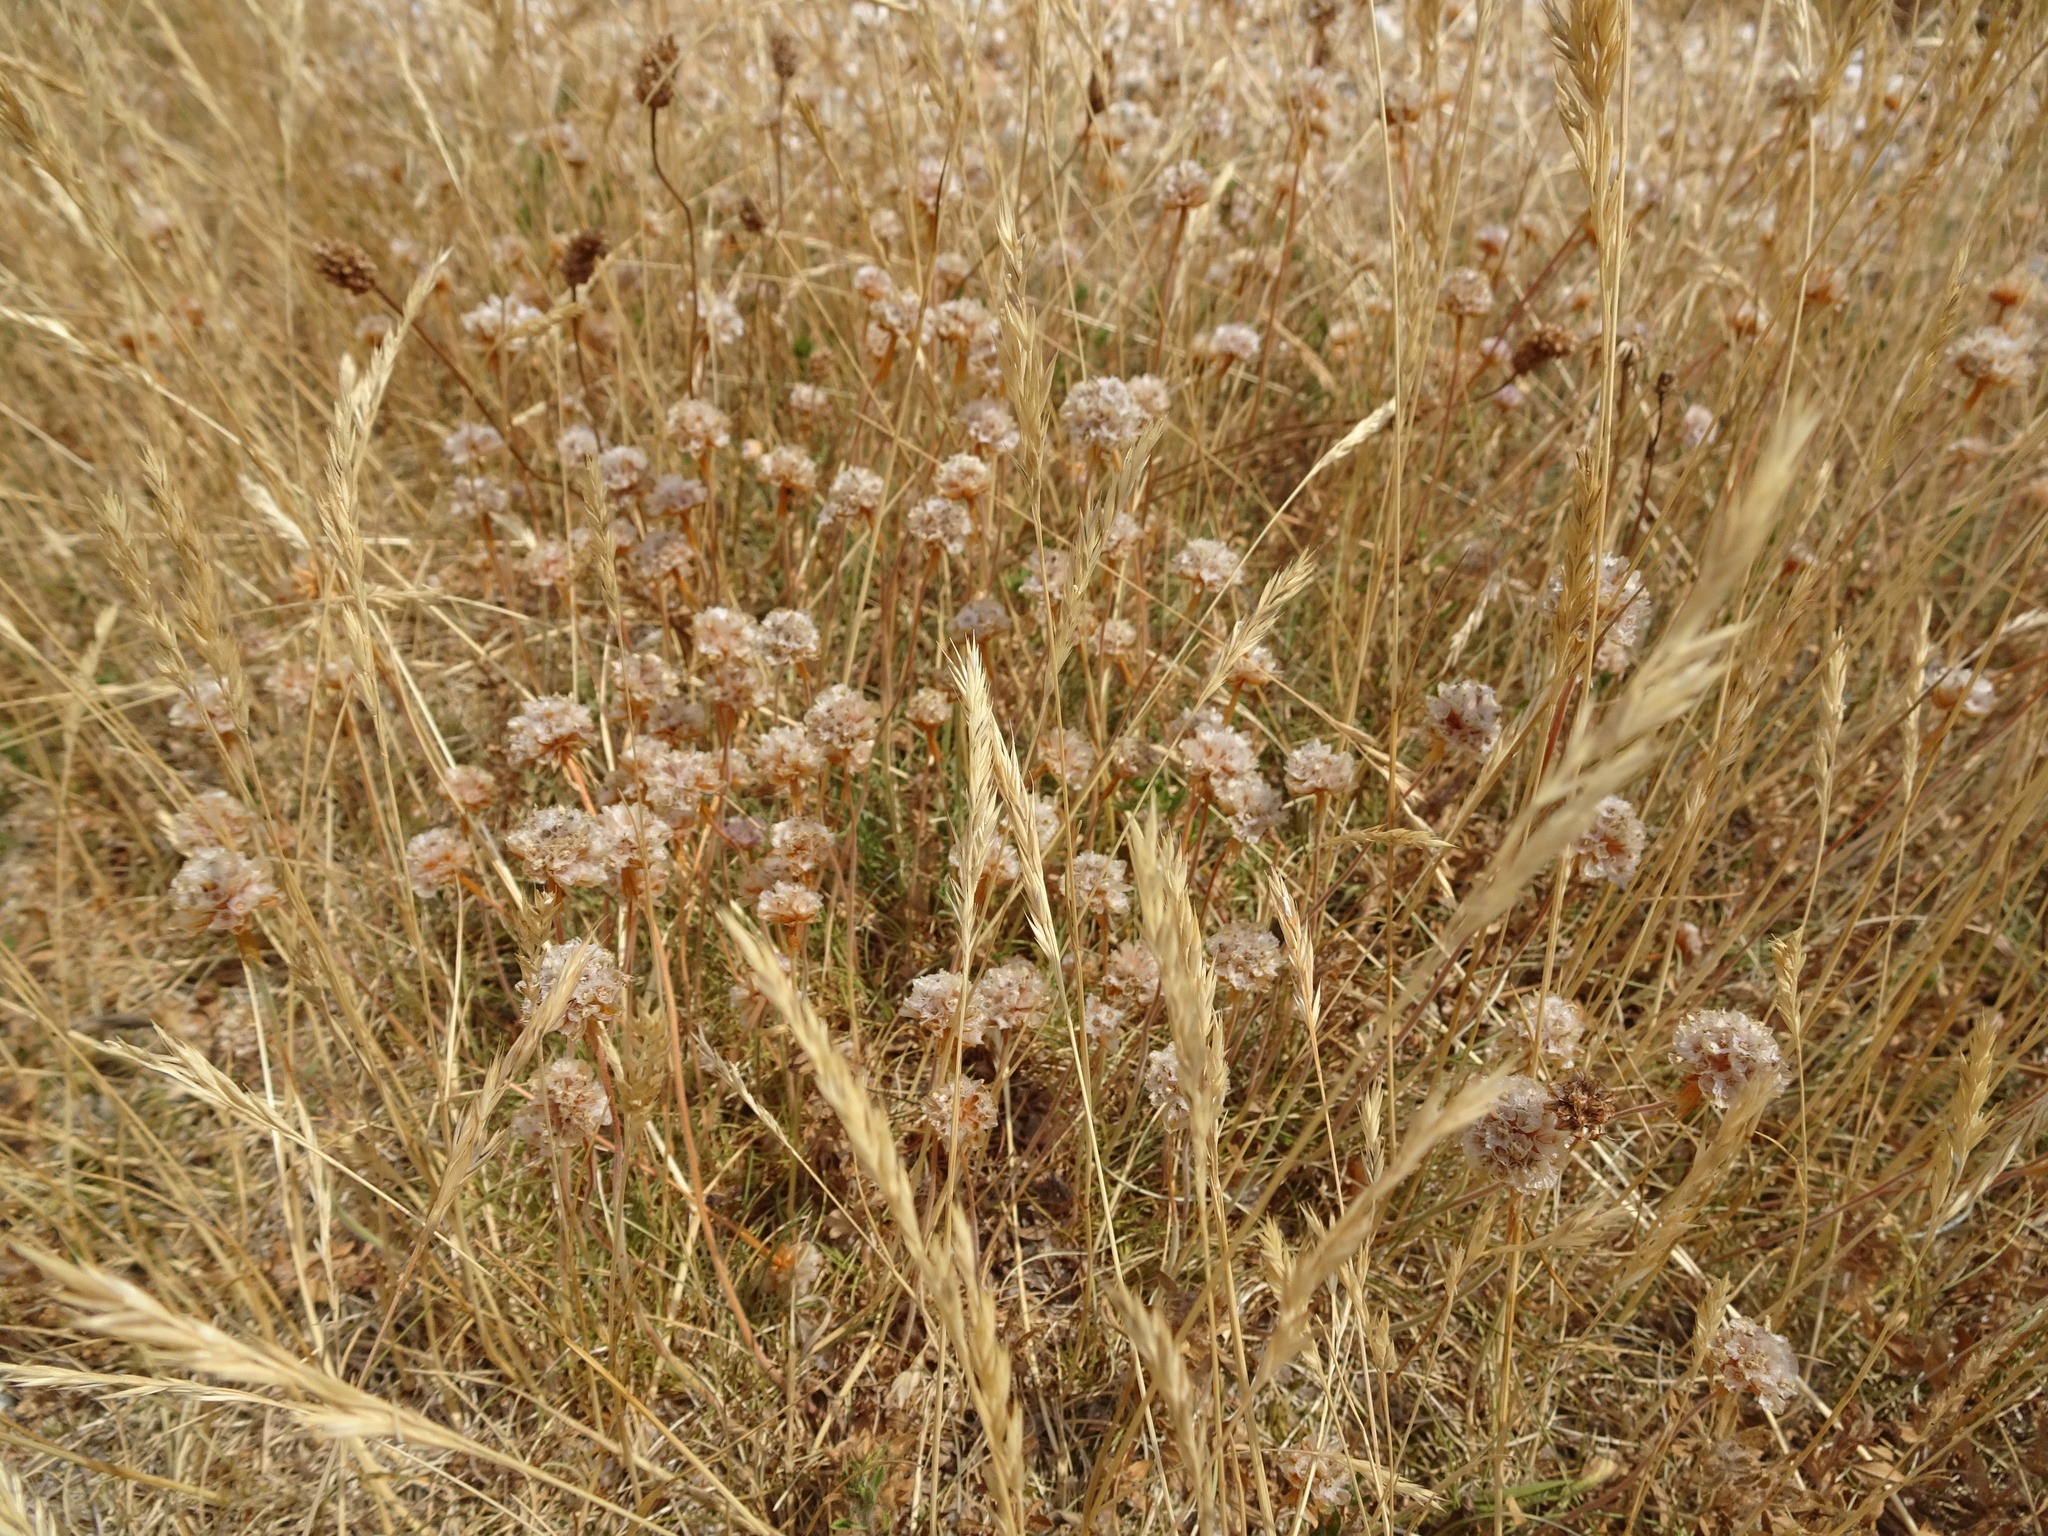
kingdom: Plantae
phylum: Tracheophyta
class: Magnoliopsida
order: Caryophyllales
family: Plumbaginaceae
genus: Armeria
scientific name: Armeria maritima
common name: Thrift
